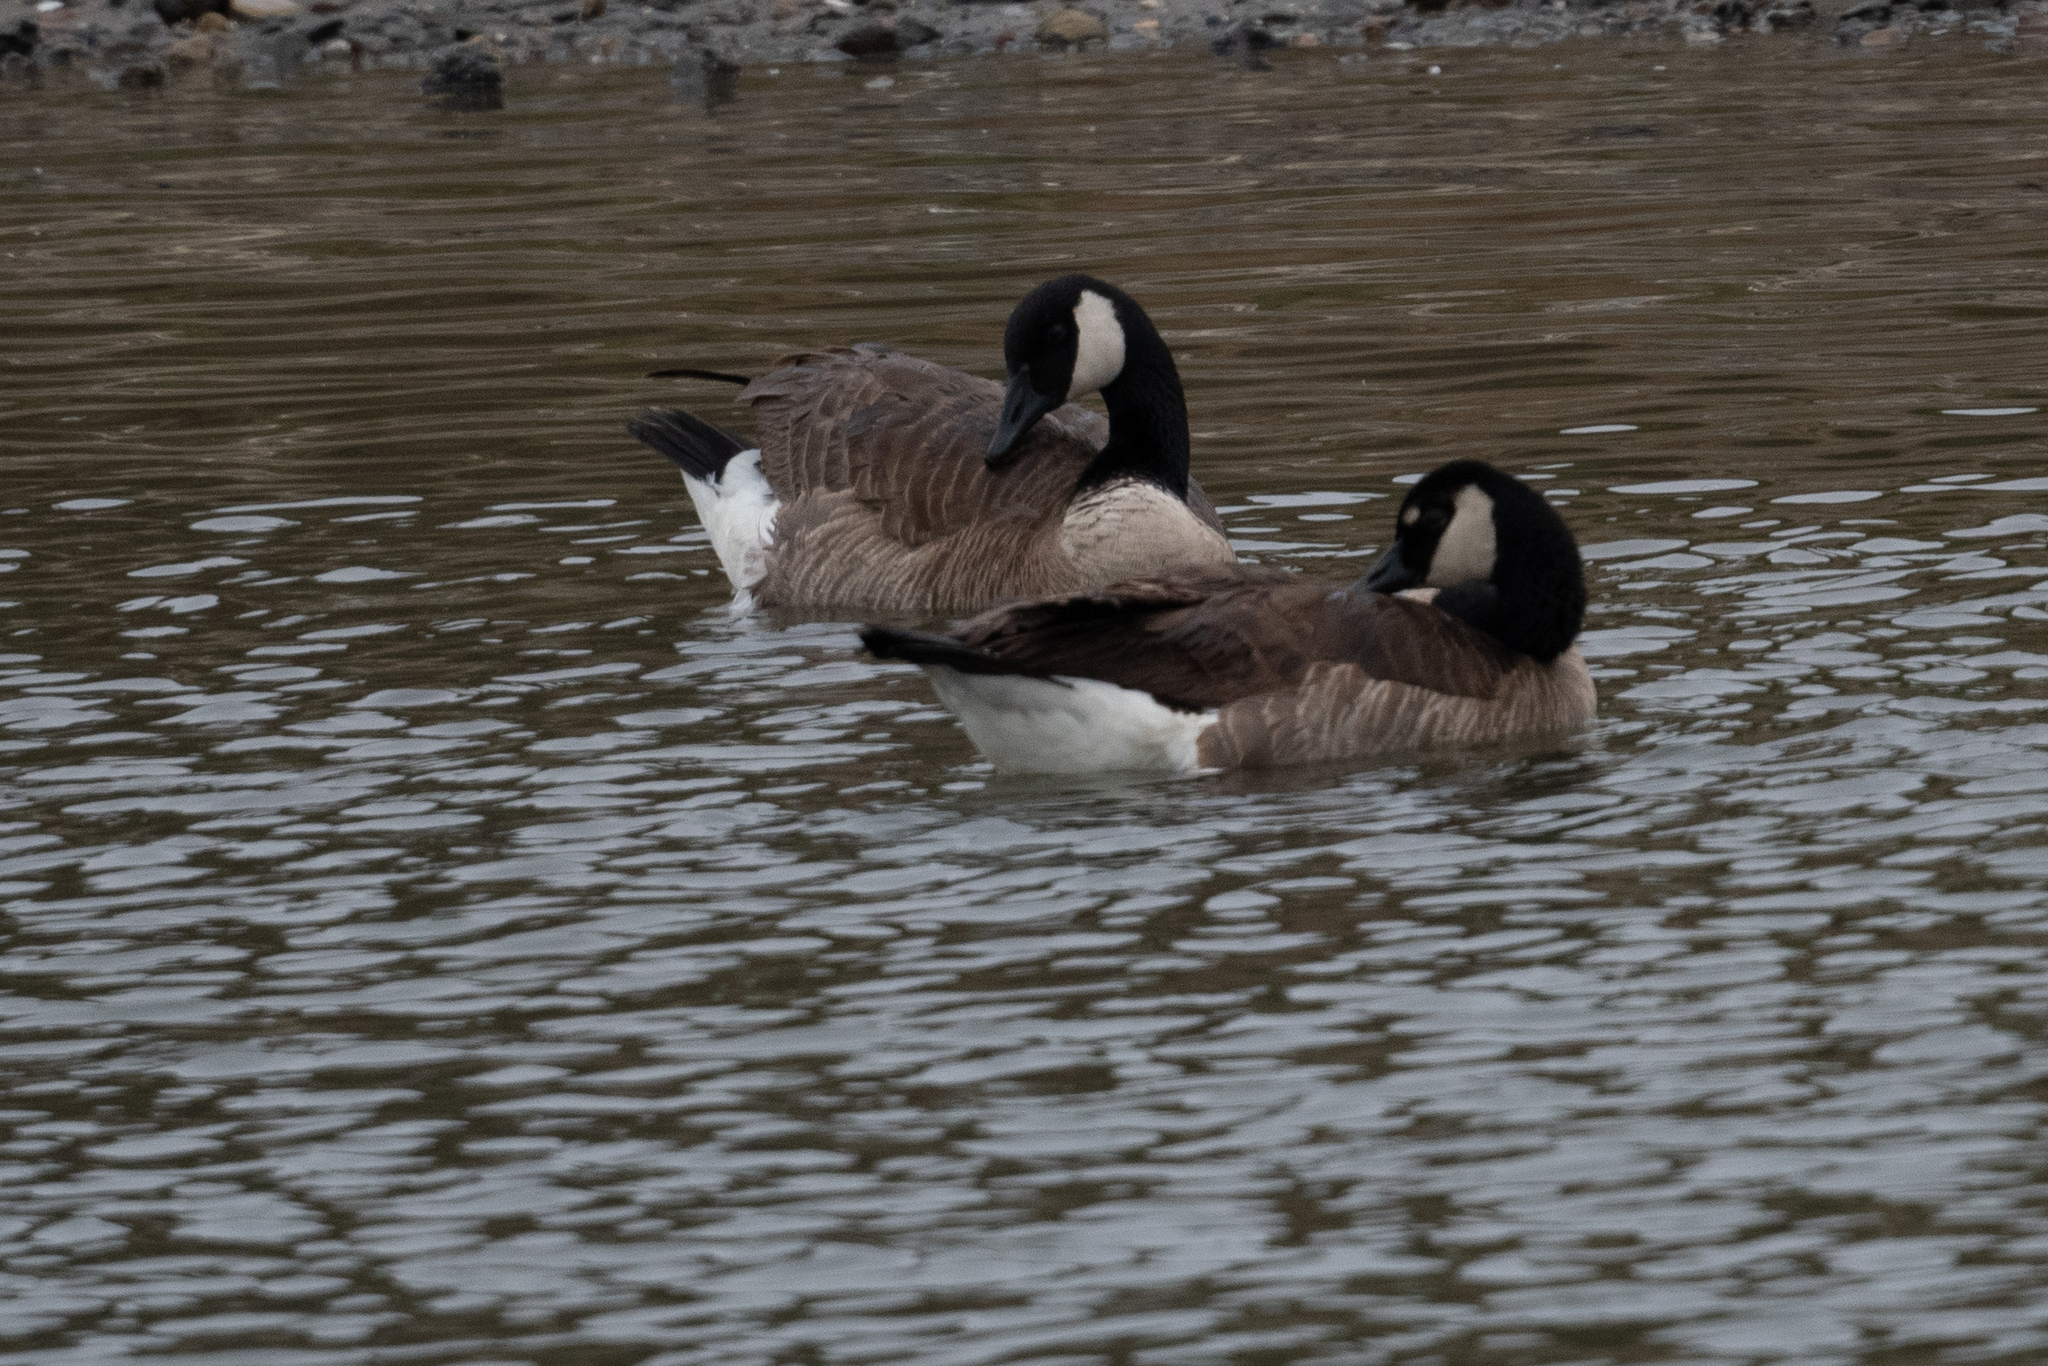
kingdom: Animalia
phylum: Chordata
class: Aves
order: Anseriformes
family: Anatidae
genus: Branta
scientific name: Branta canadensis
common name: Canada goose
